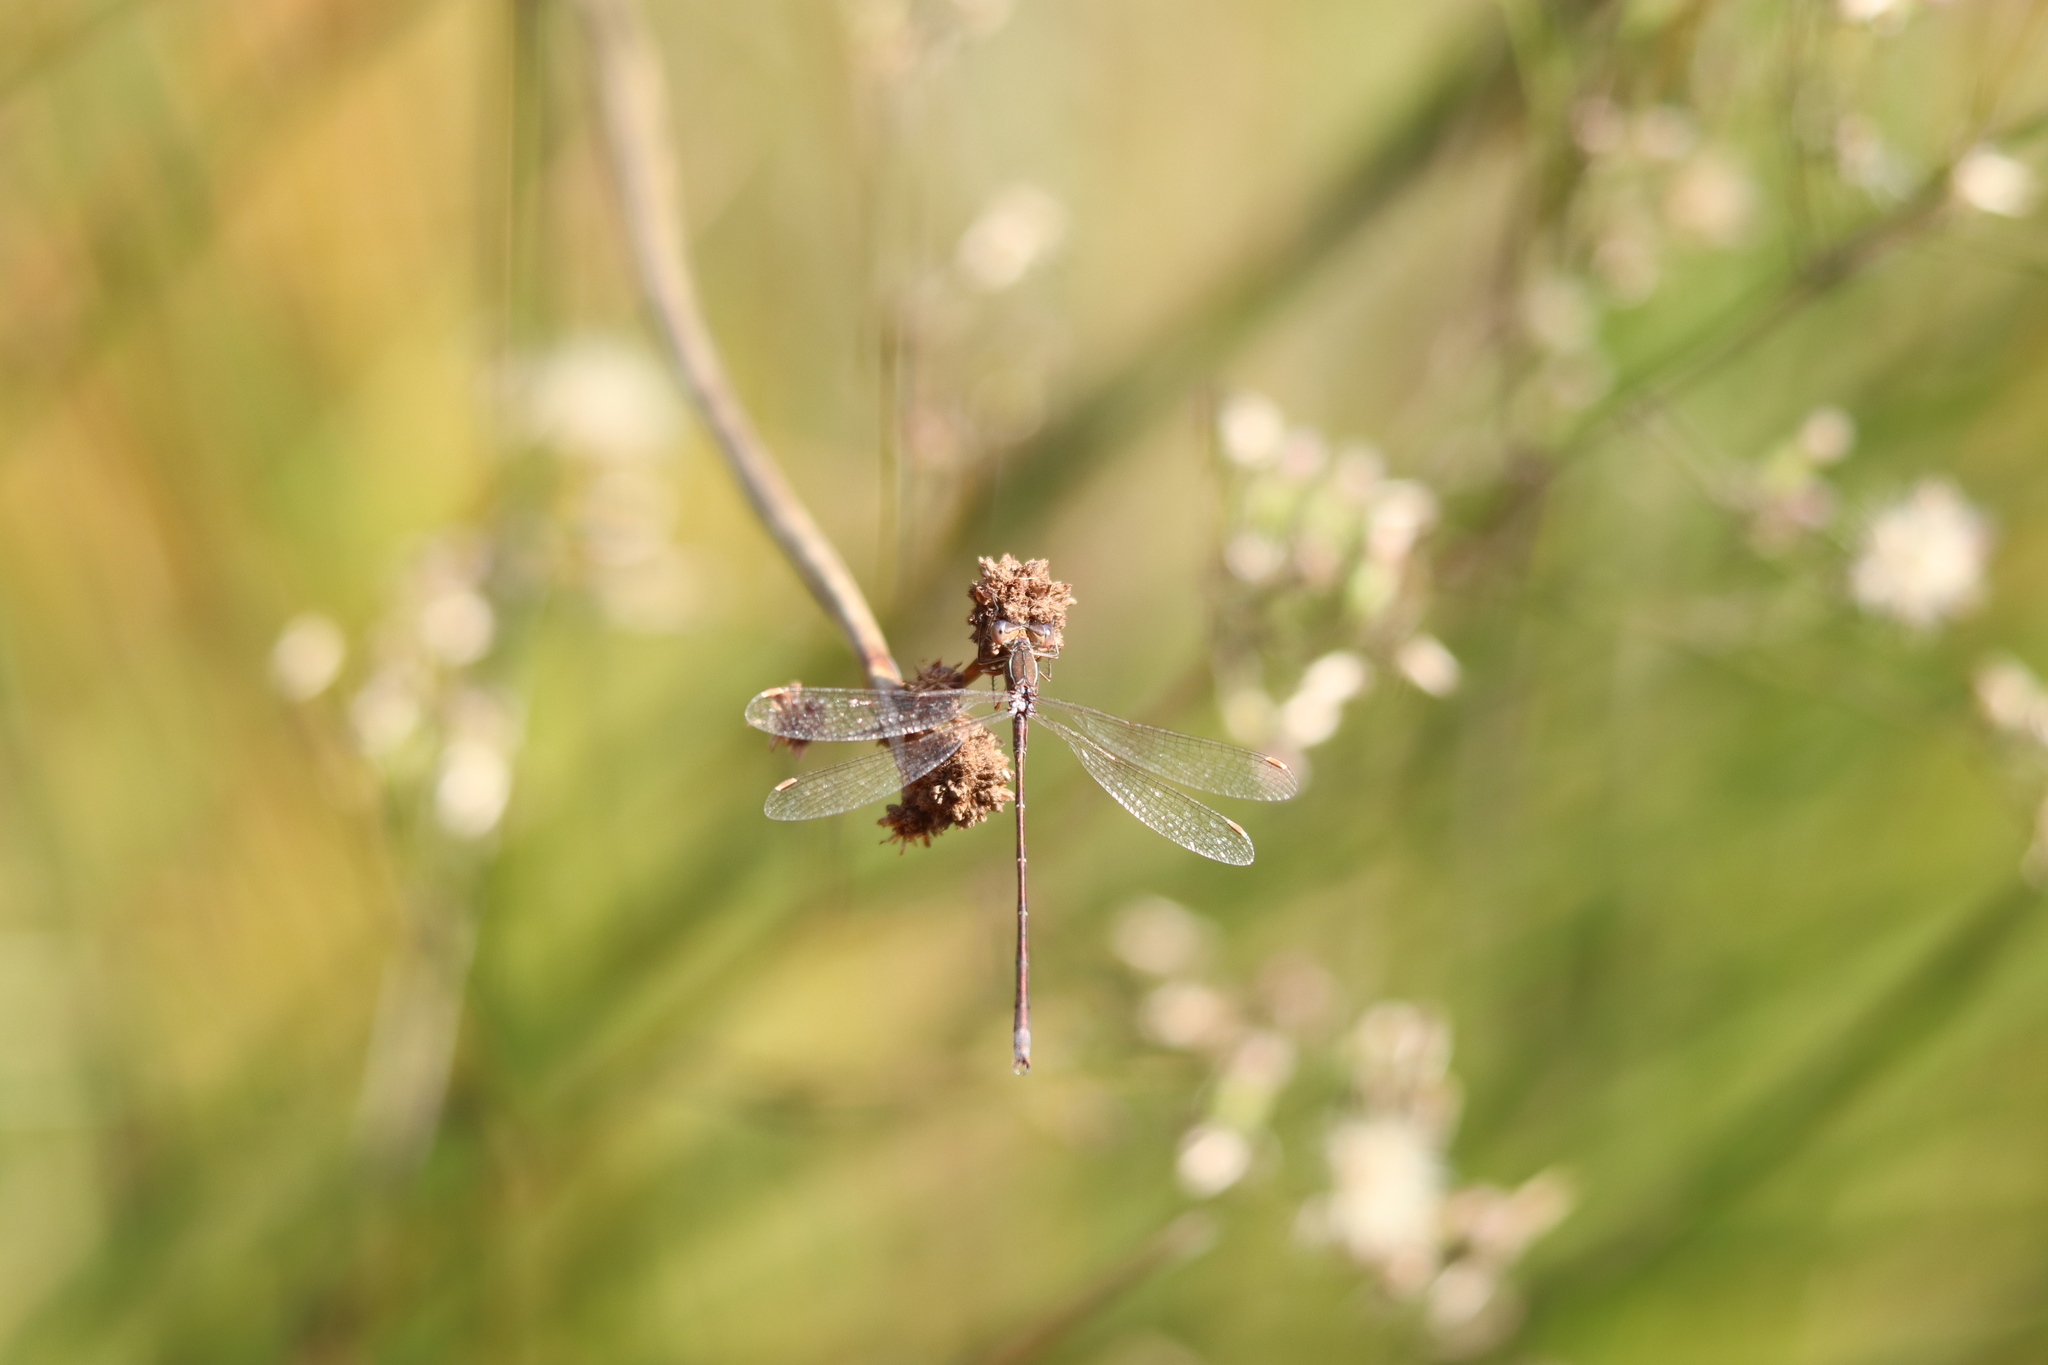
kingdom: Animalia
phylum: Arthropoda
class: Insecta
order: Odonata
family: Lestidae
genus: Lestes
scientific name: Lestes virens
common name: Small emerald spreadwing
